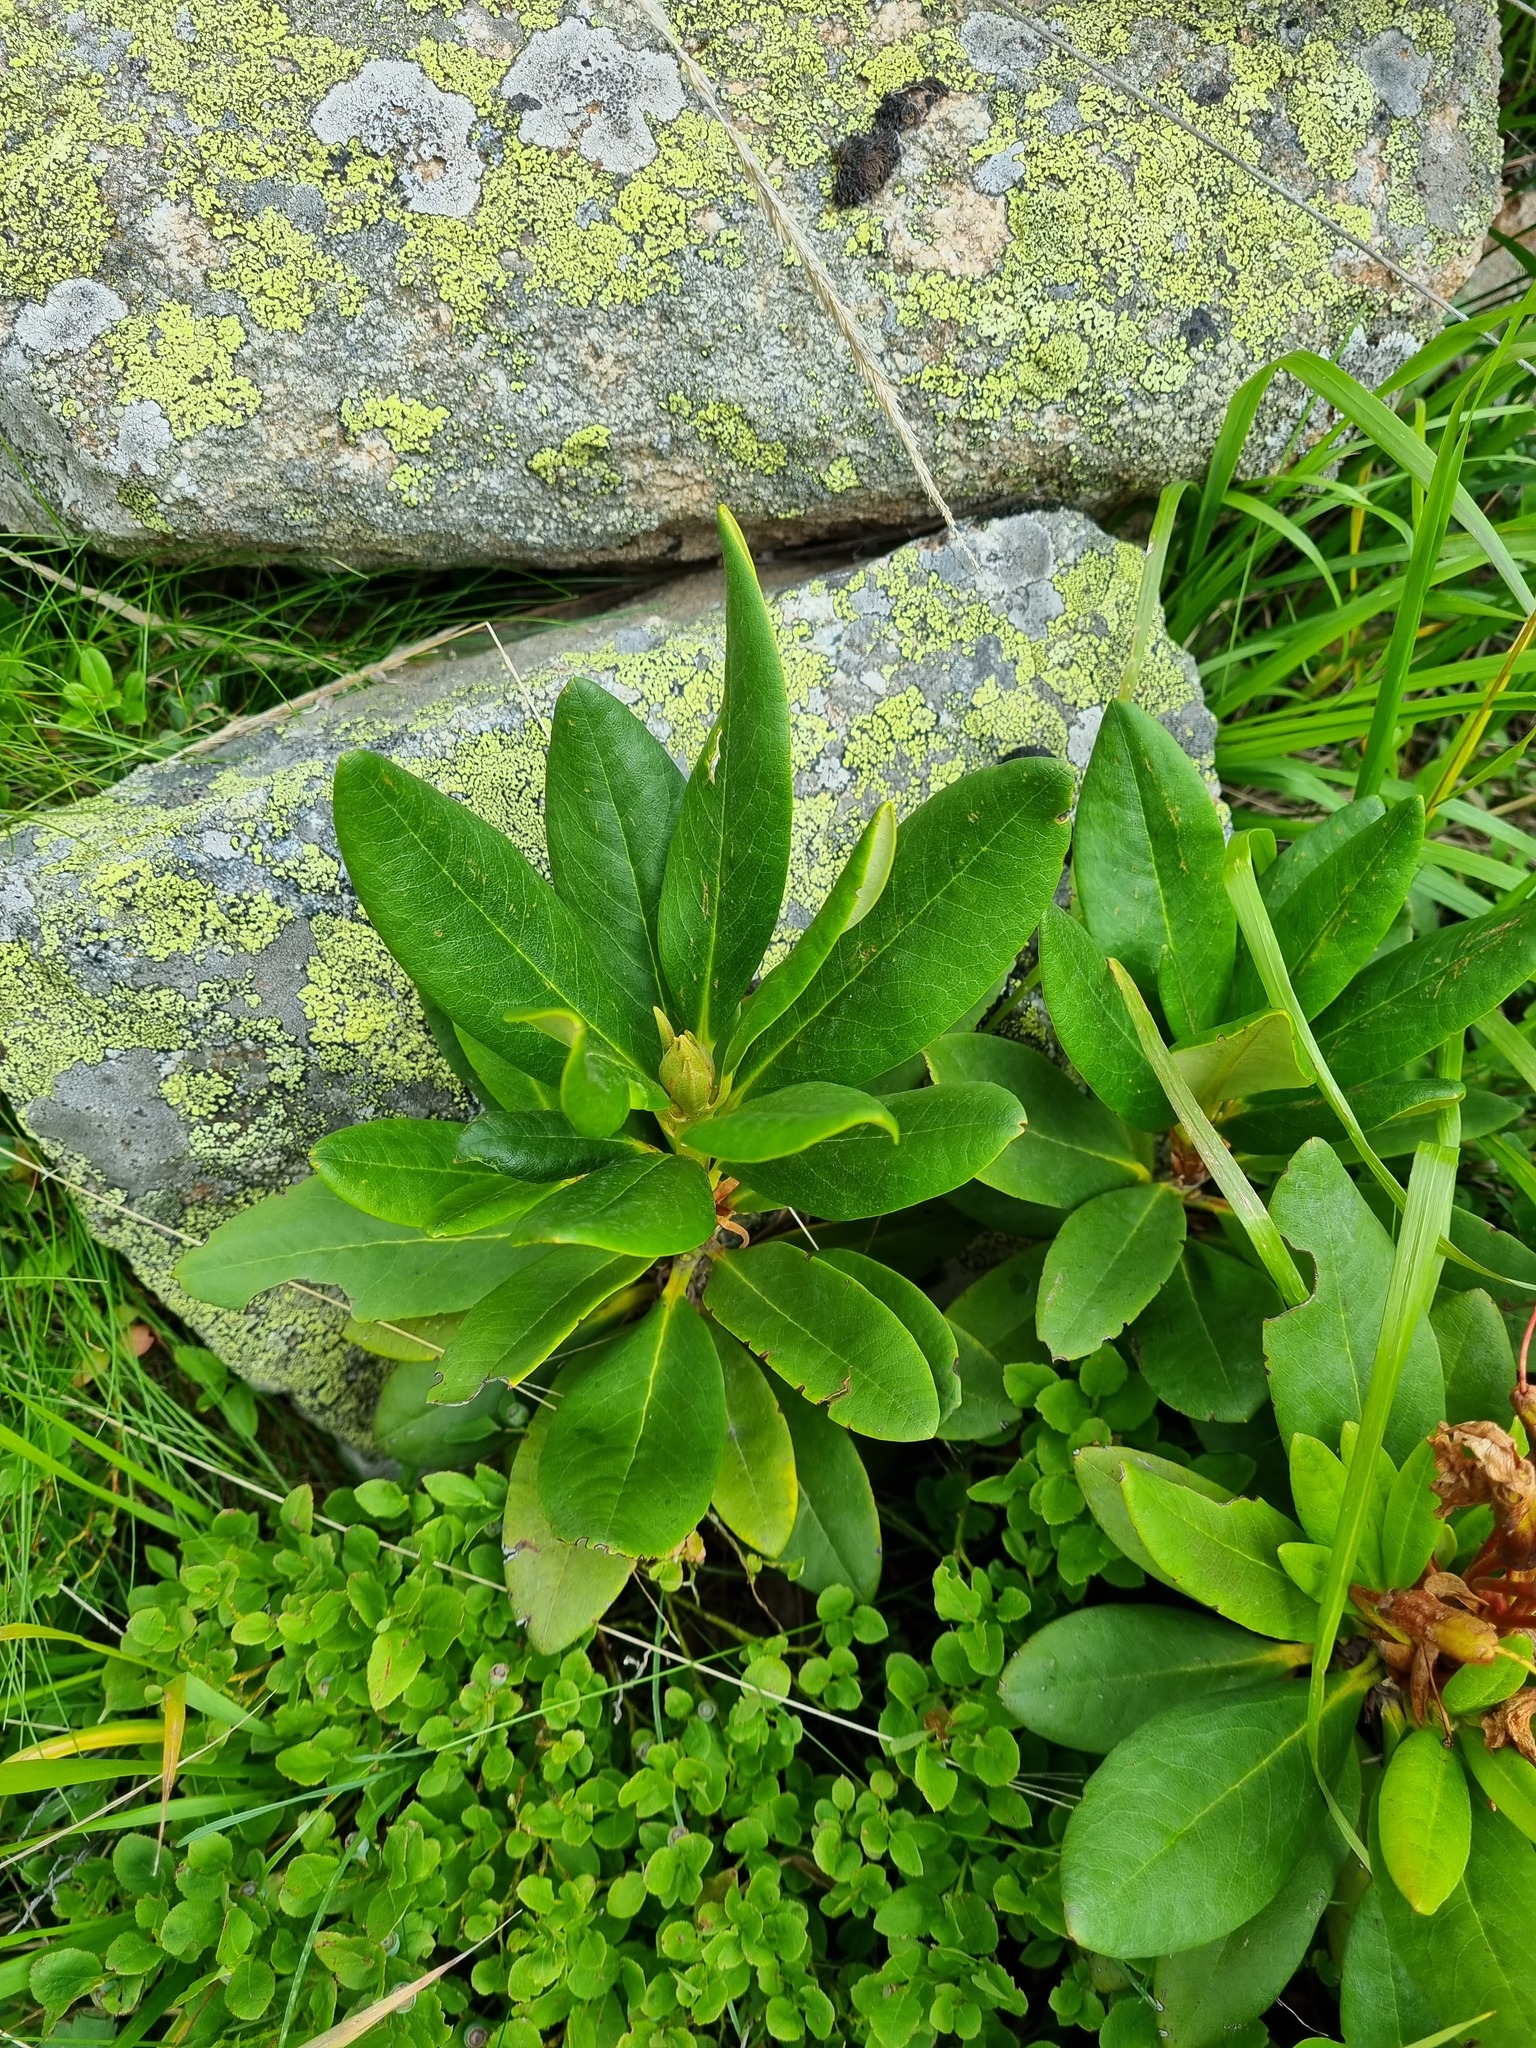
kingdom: Plantae
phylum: Tracheophyta
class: Magnoliopsida
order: Ericales
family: Ericaceae
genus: Rhododendron
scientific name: Rhododendron caucasicum
